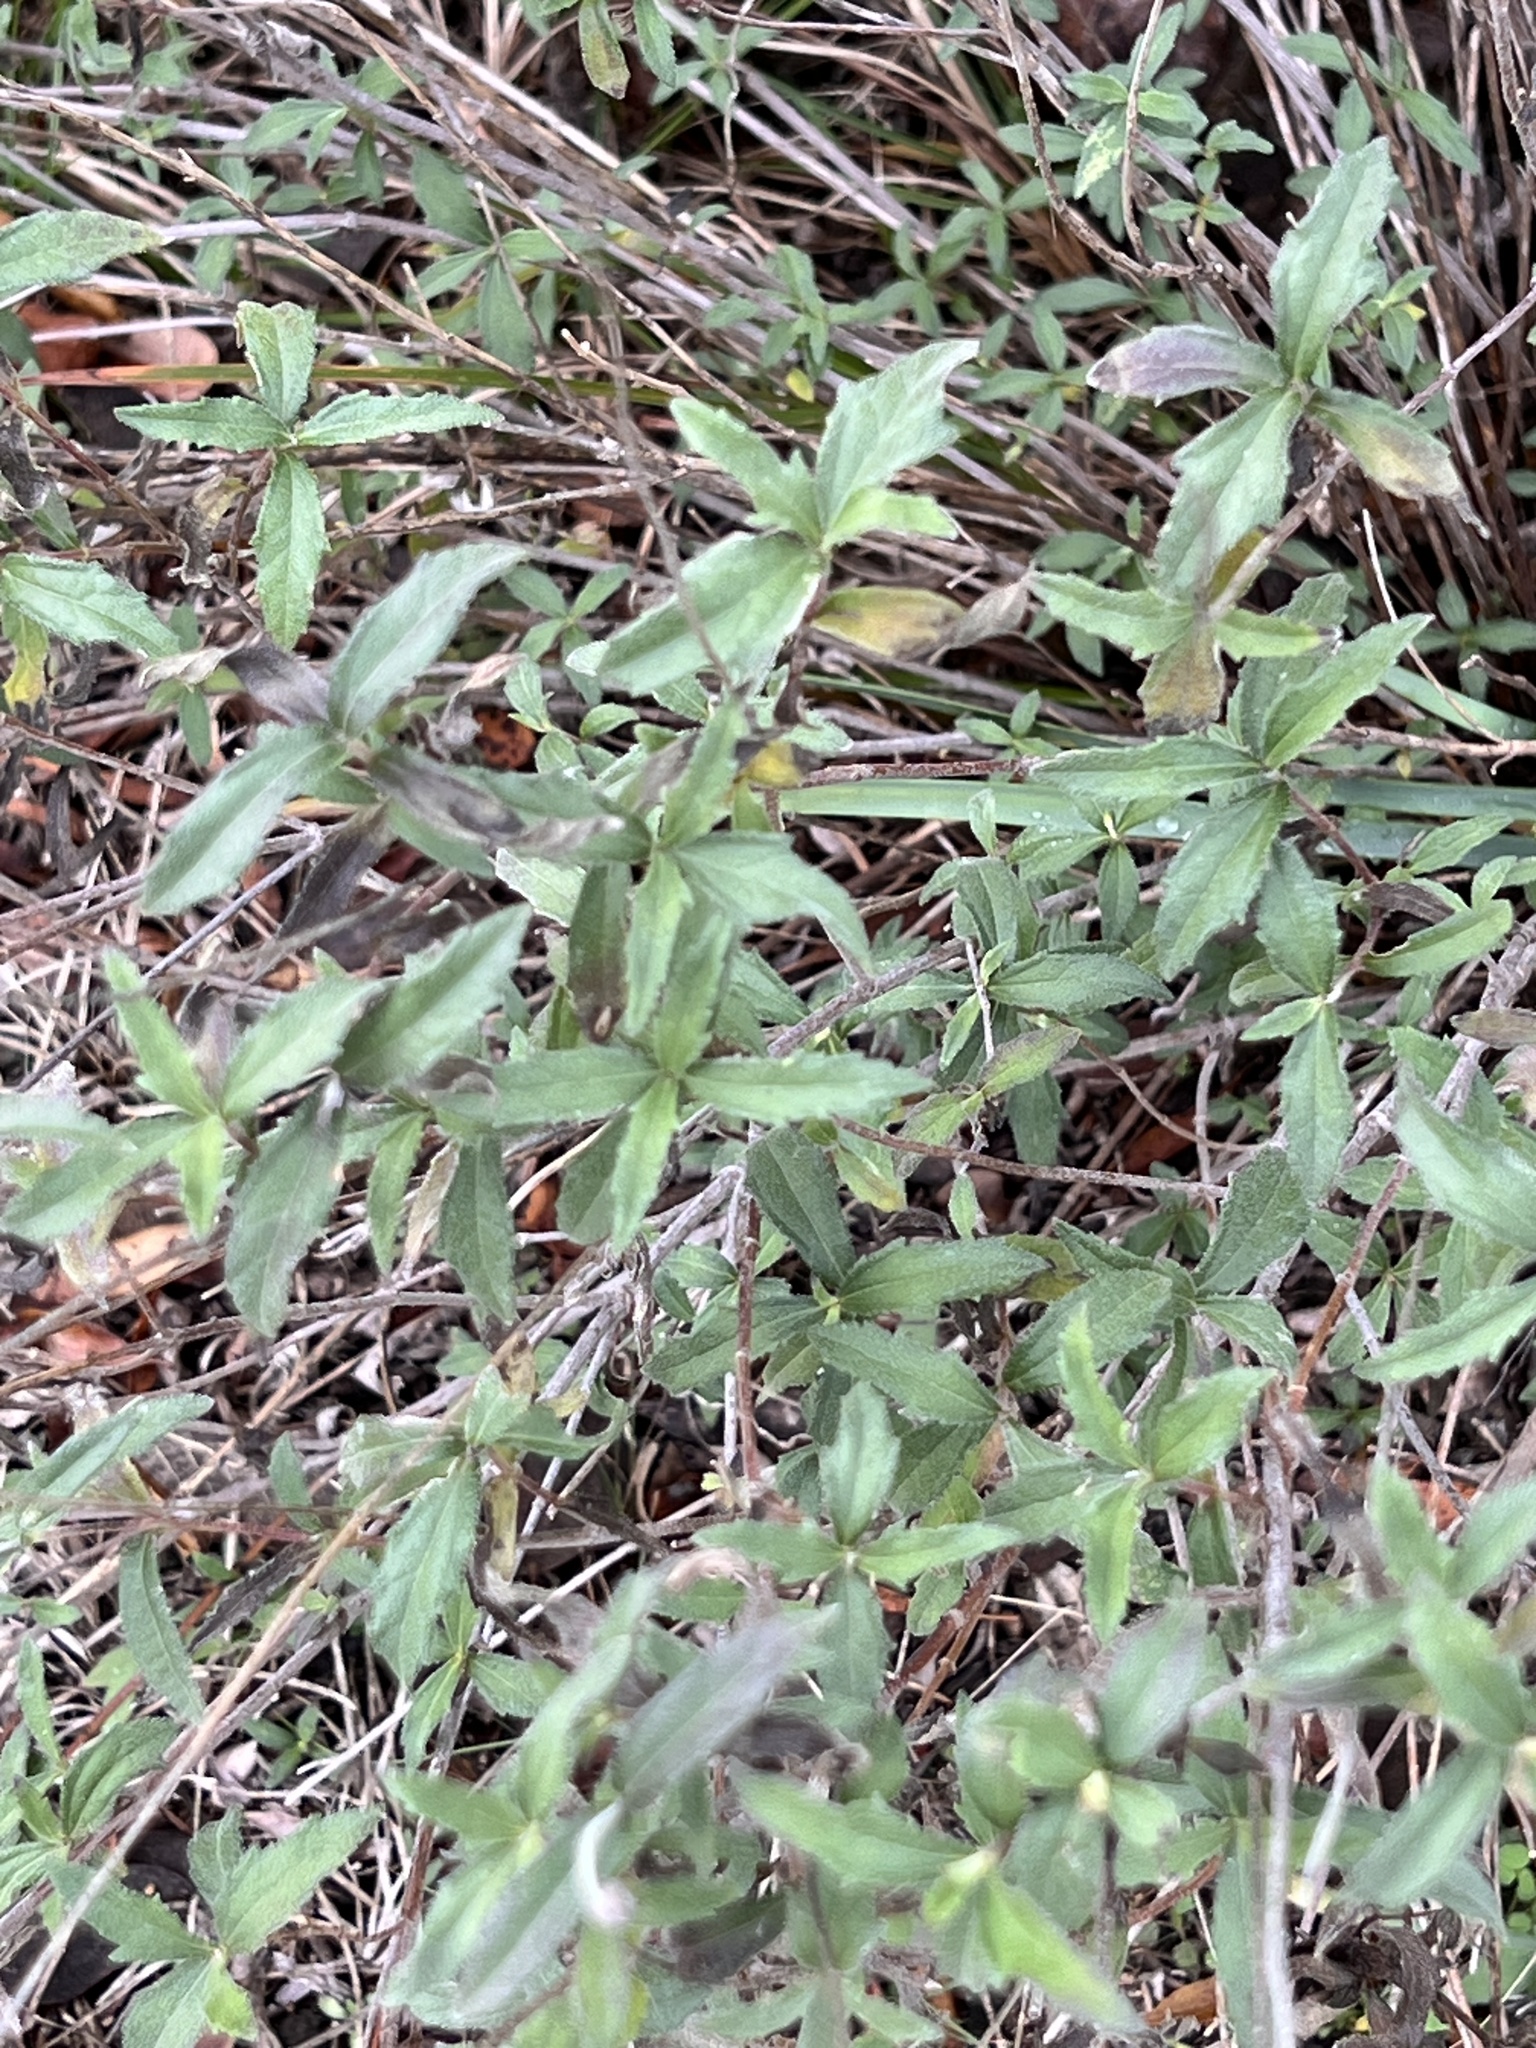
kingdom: Plantae
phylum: Tracheophyta
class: Magnoliopsida
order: Asterales
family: Asteraceae
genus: Wedelia
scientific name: Wedelia acapulcensis
